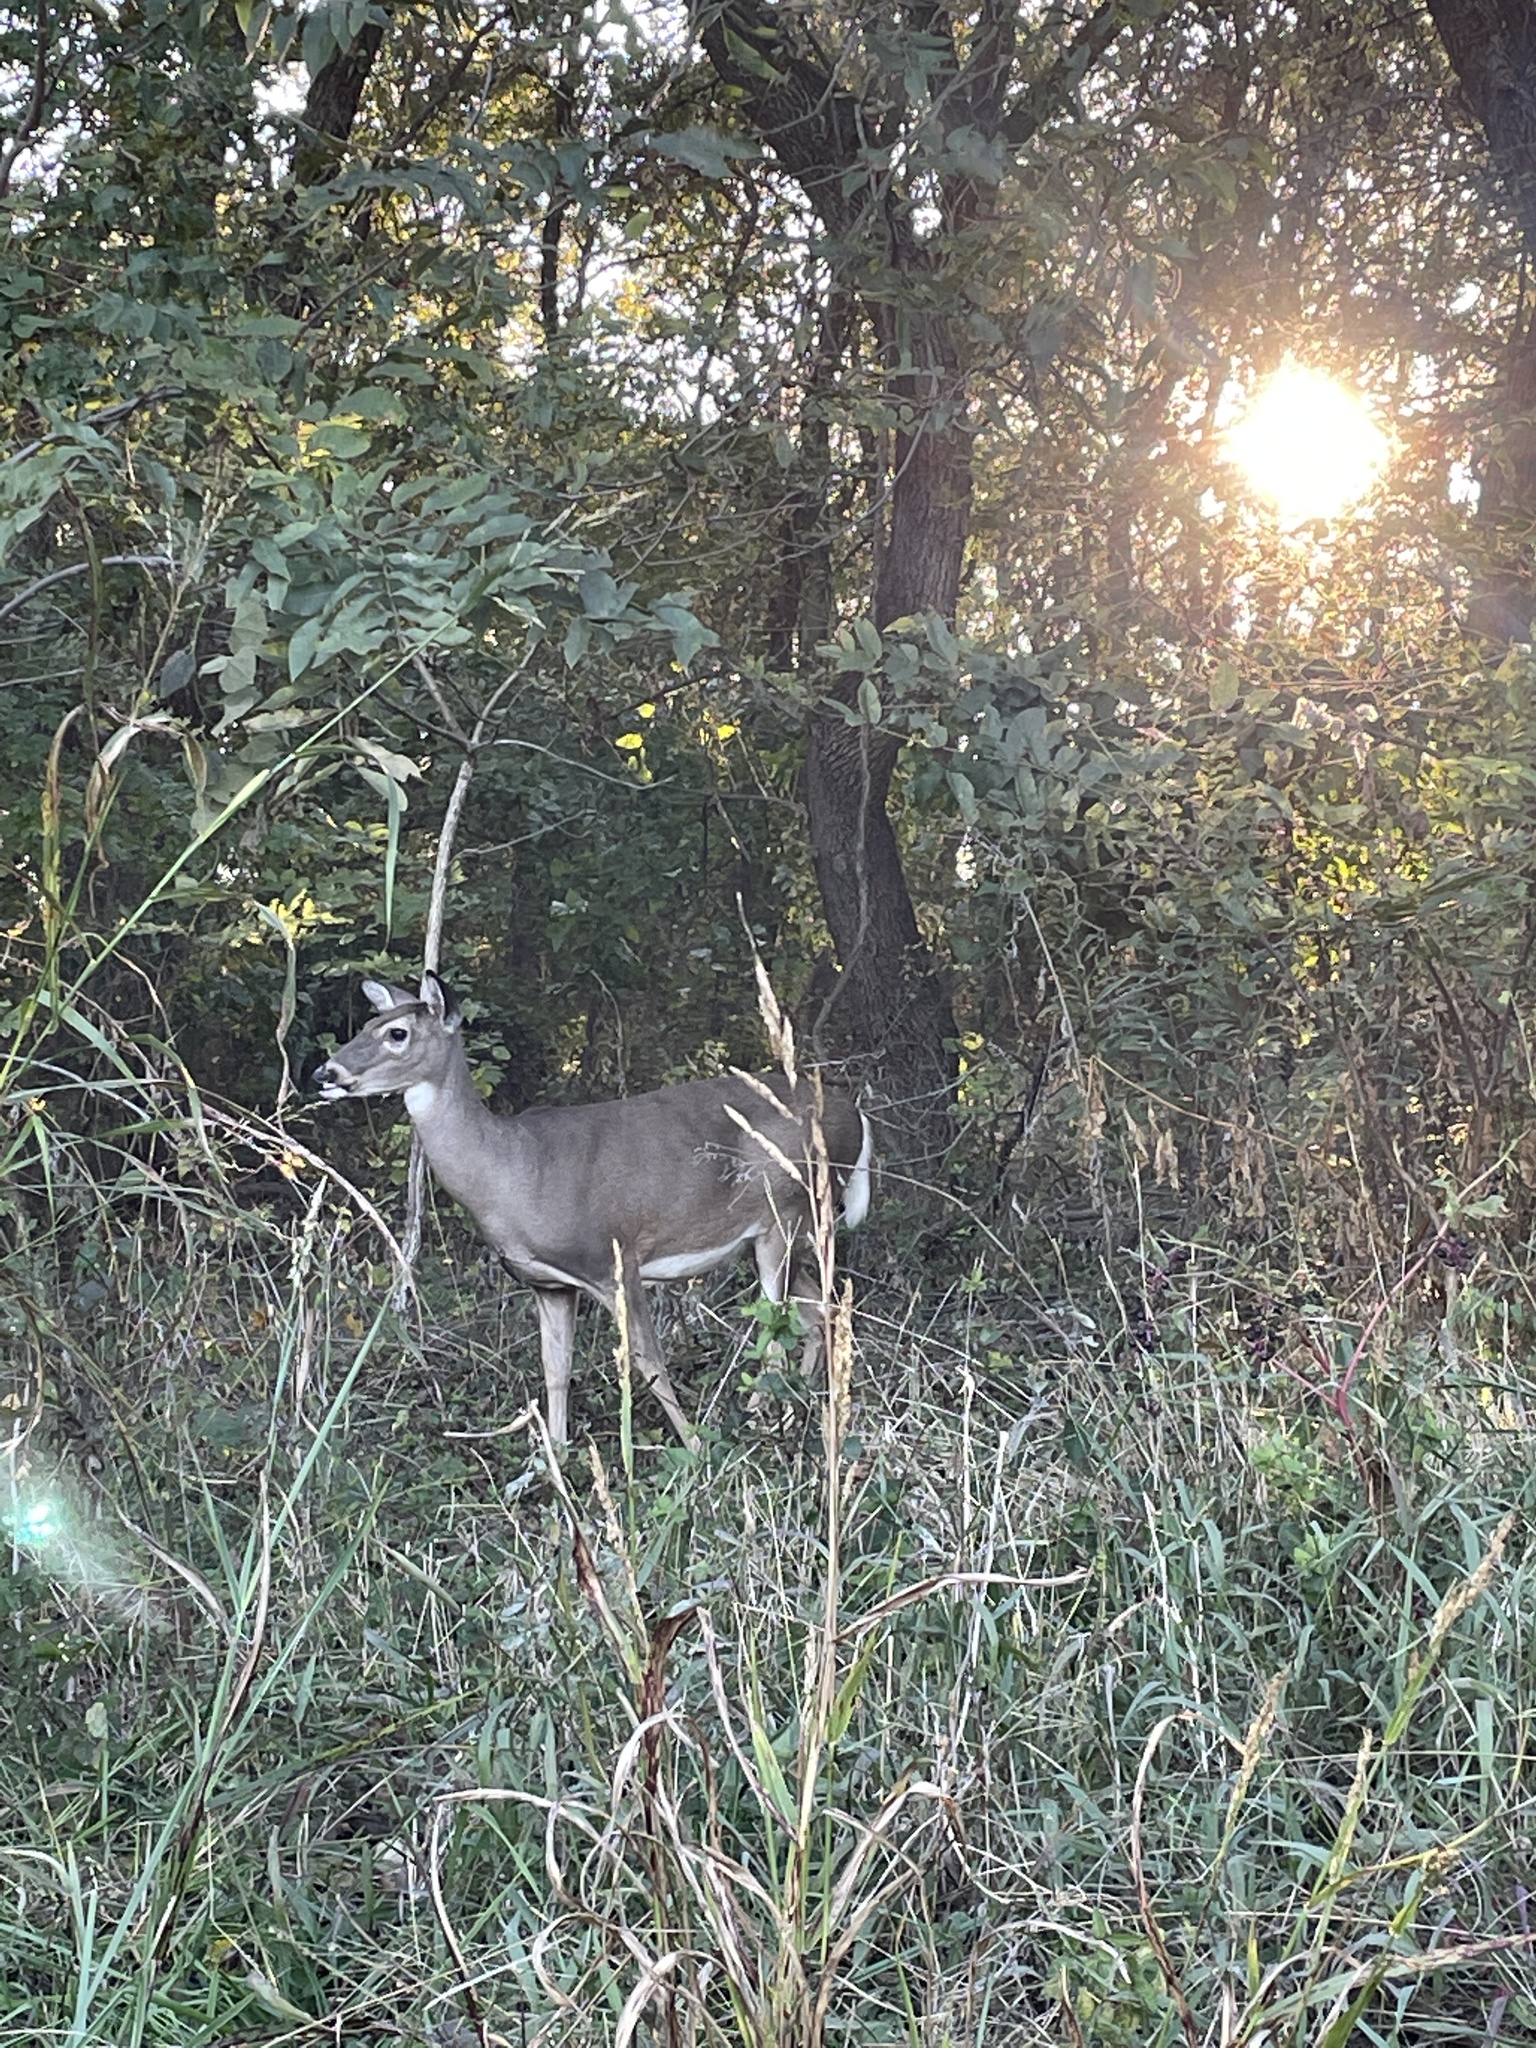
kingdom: Animalia
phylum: Chordata
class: Mammalia
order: Artiodactyla
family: Cervidae
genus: Odocoileus
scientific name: Odocoileus virginianus
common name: White-tailed deer
